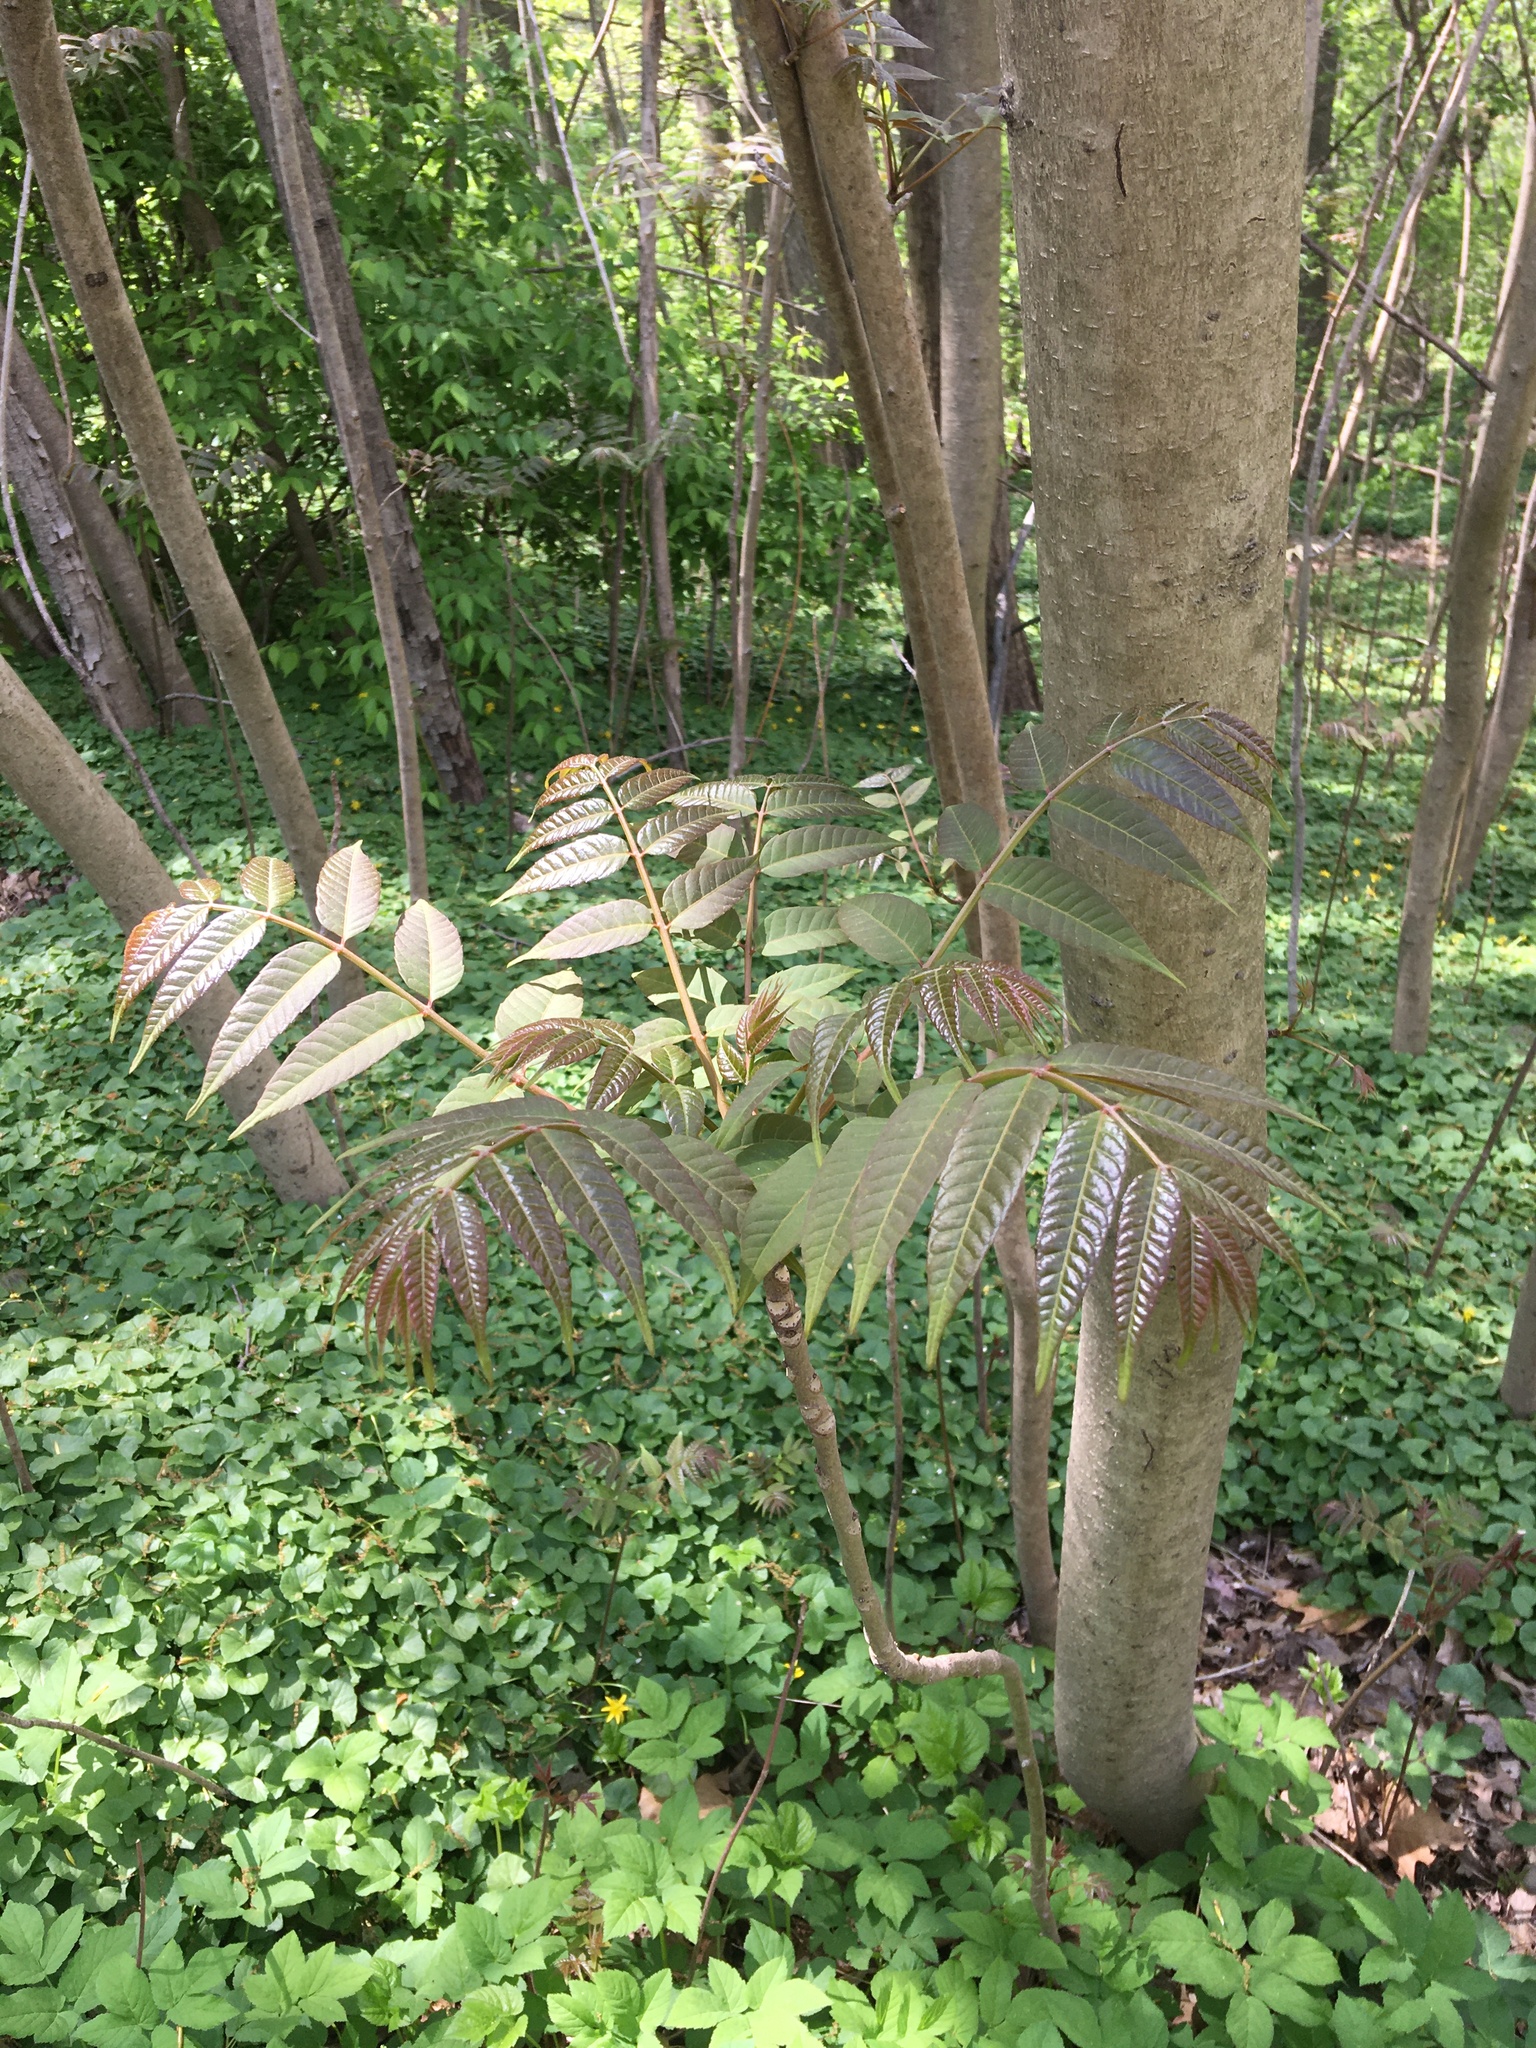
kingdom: Plantae
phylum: Tracheophyta
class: Magnoliopsida
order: Sapindales
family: Meliaceae
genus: Toona
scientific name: Toona sinensis
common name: Red toon
